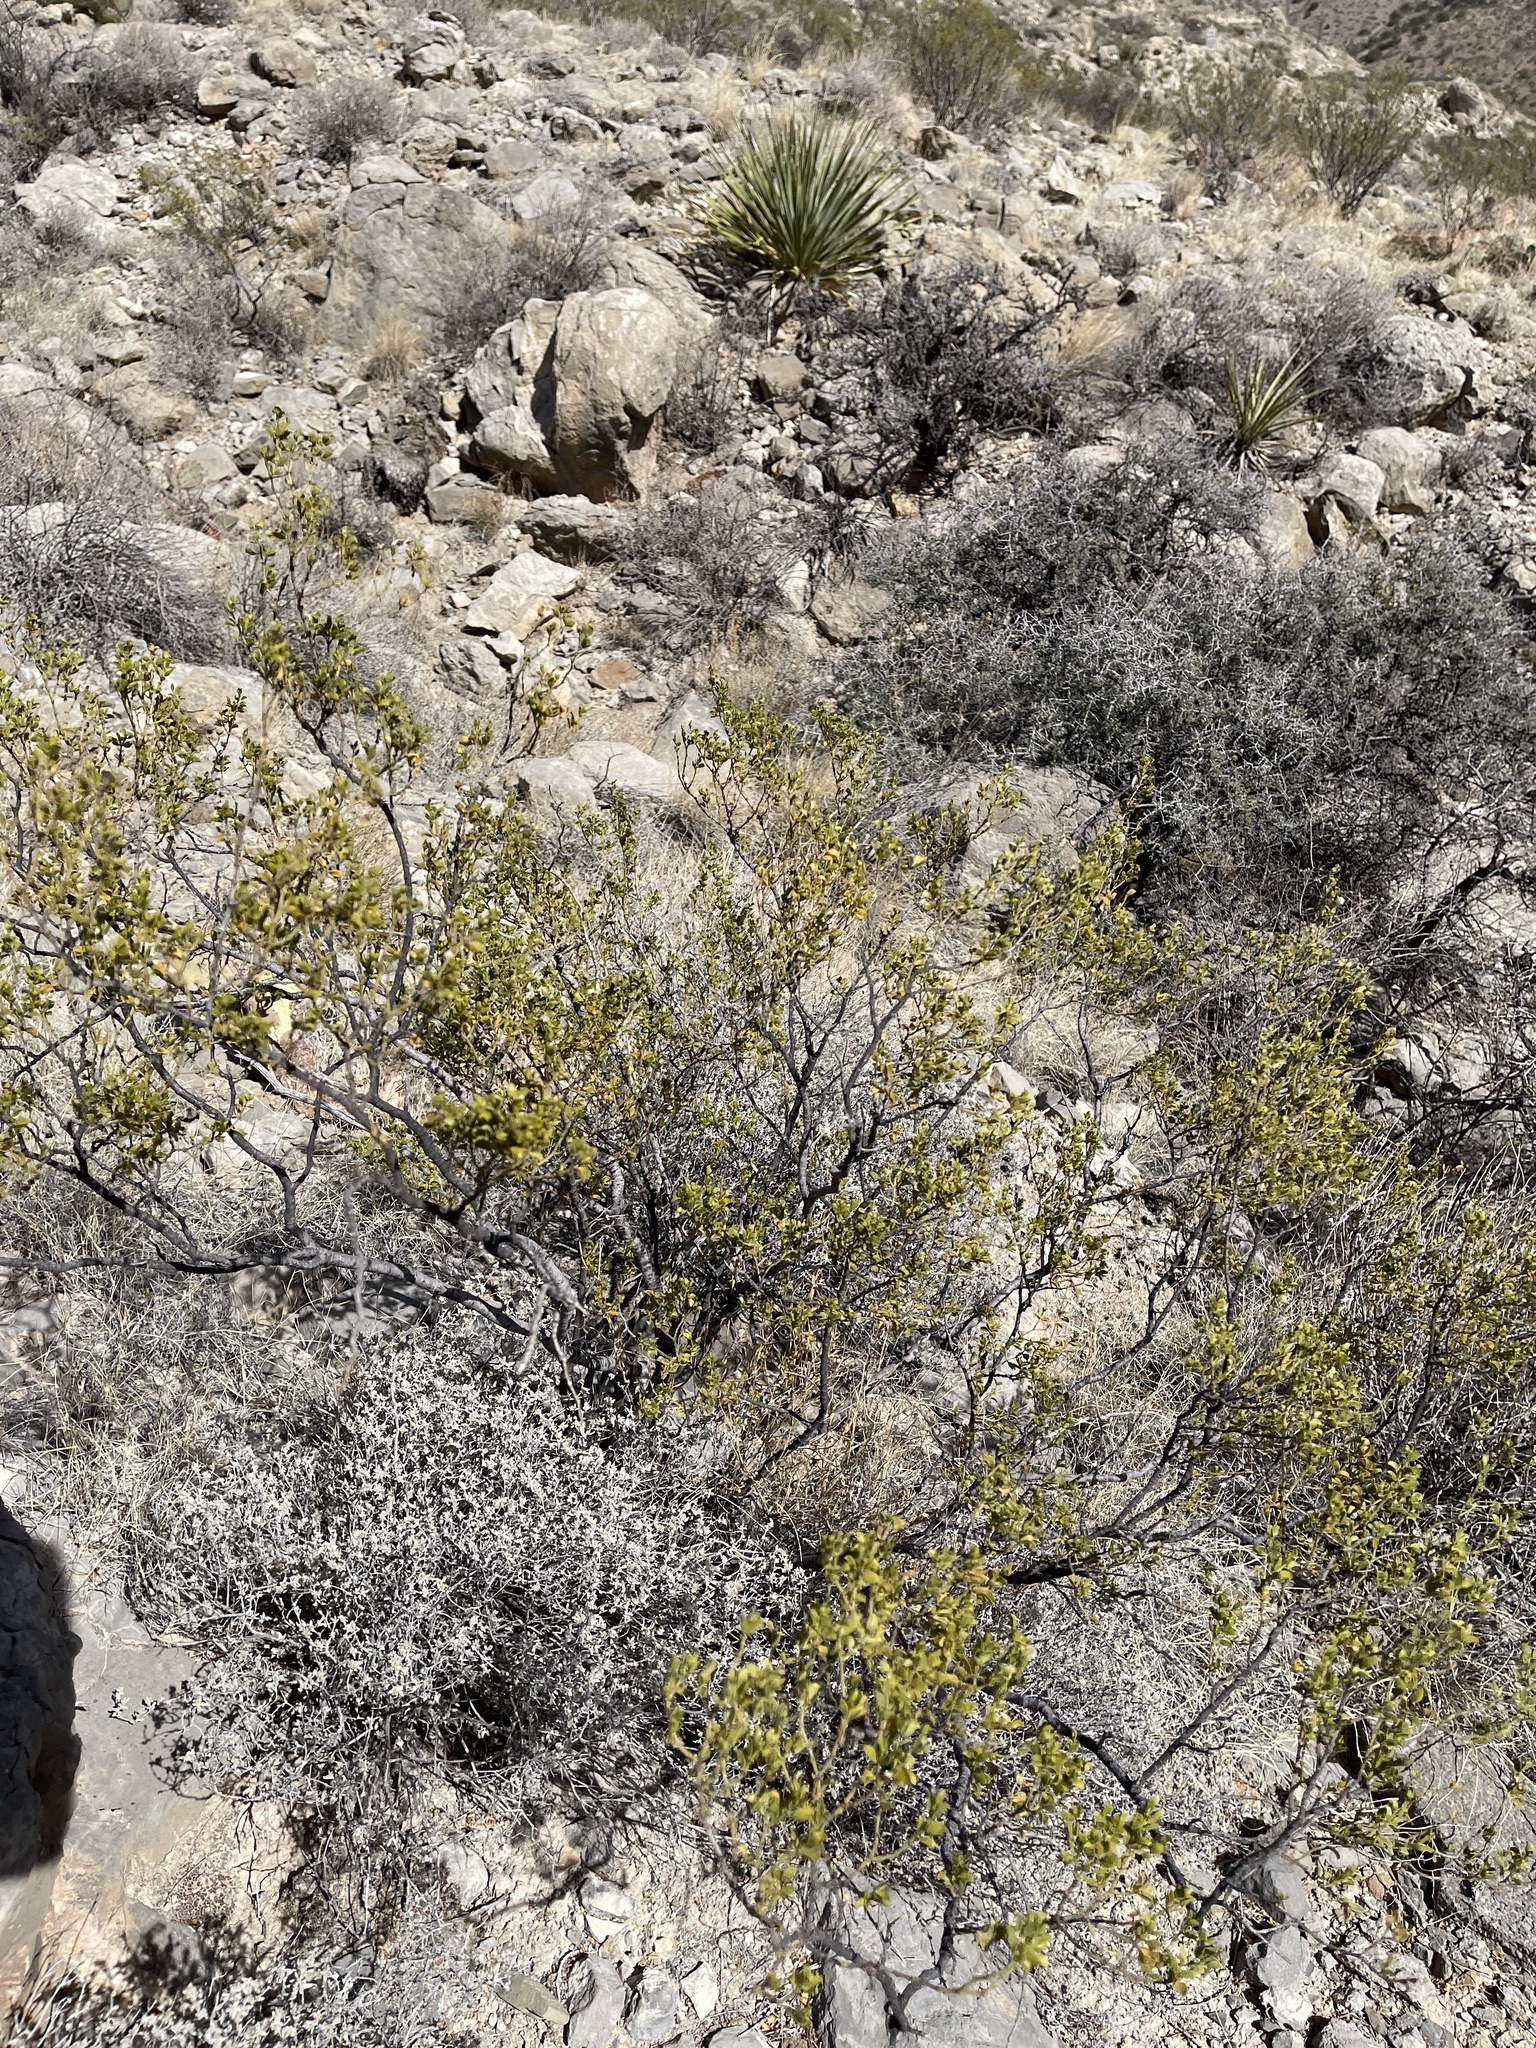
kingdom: Plantae
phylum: Tracheophyta
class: Magnoliopsida
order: Zygophyllales
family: Zygophyllaceae
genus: Larrea
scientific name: Larrea tridentata
